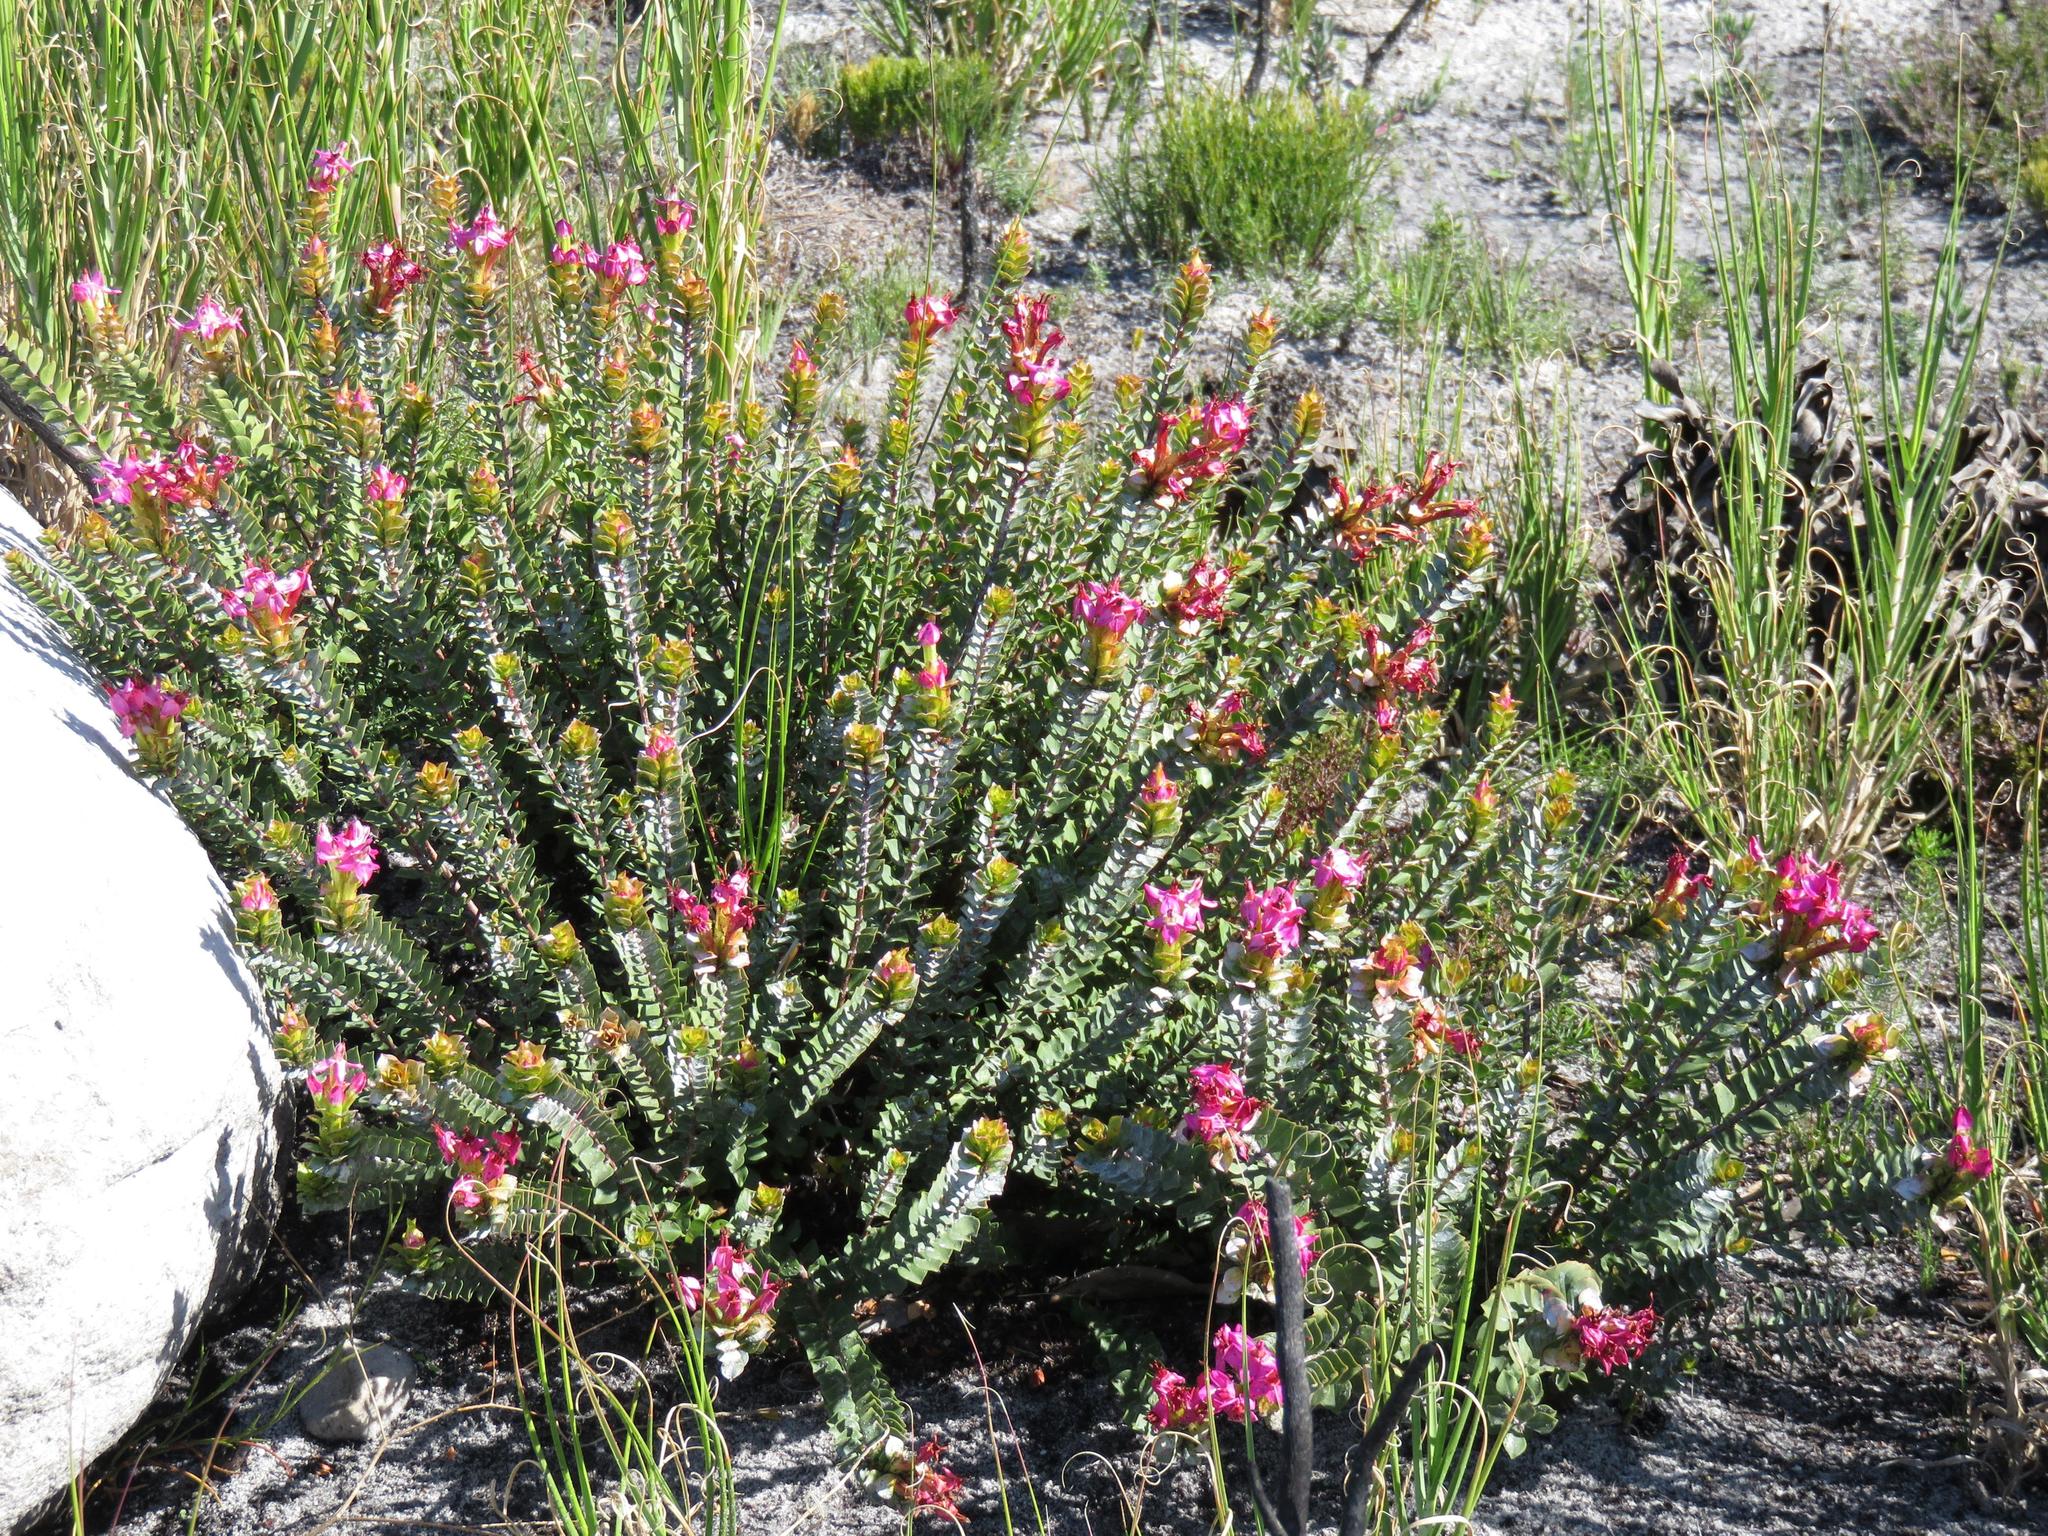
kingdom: Plantae
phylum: Tracheophyta
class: Magnoliopsida
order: Myrtales
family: Penaeaceae
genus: Saltera
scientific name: Saltera sarcocolla
